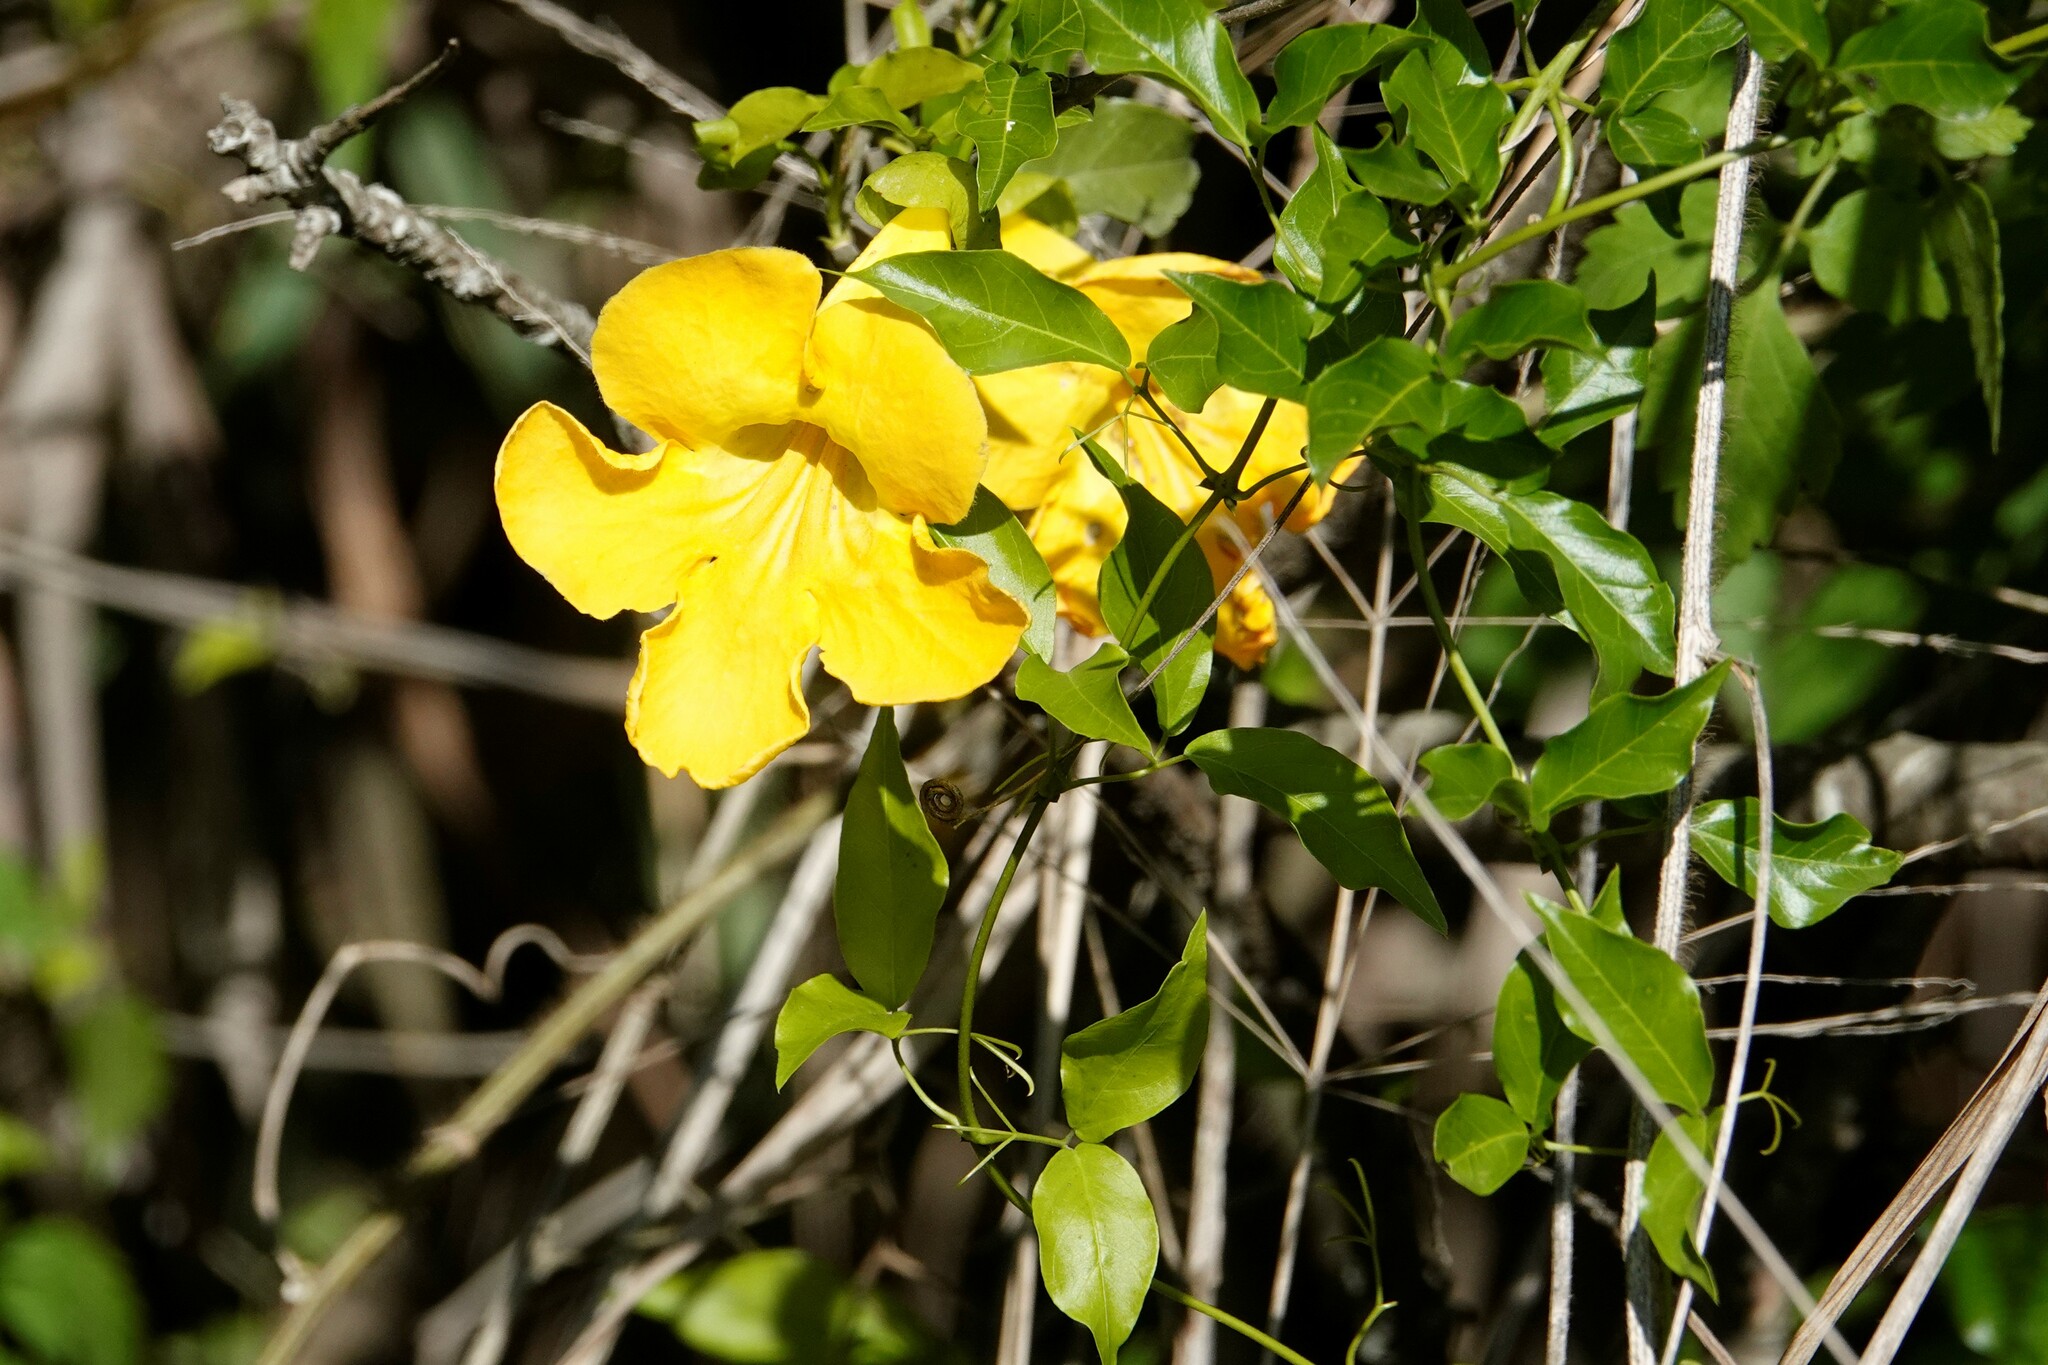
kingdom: Plantae
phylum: Tracheophyta
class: Magnoliopsida
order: Lamiales
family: Bignoniaceae
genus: Dolichandra
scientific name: Dolichandra unguis-cati
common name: Catclaw vine
